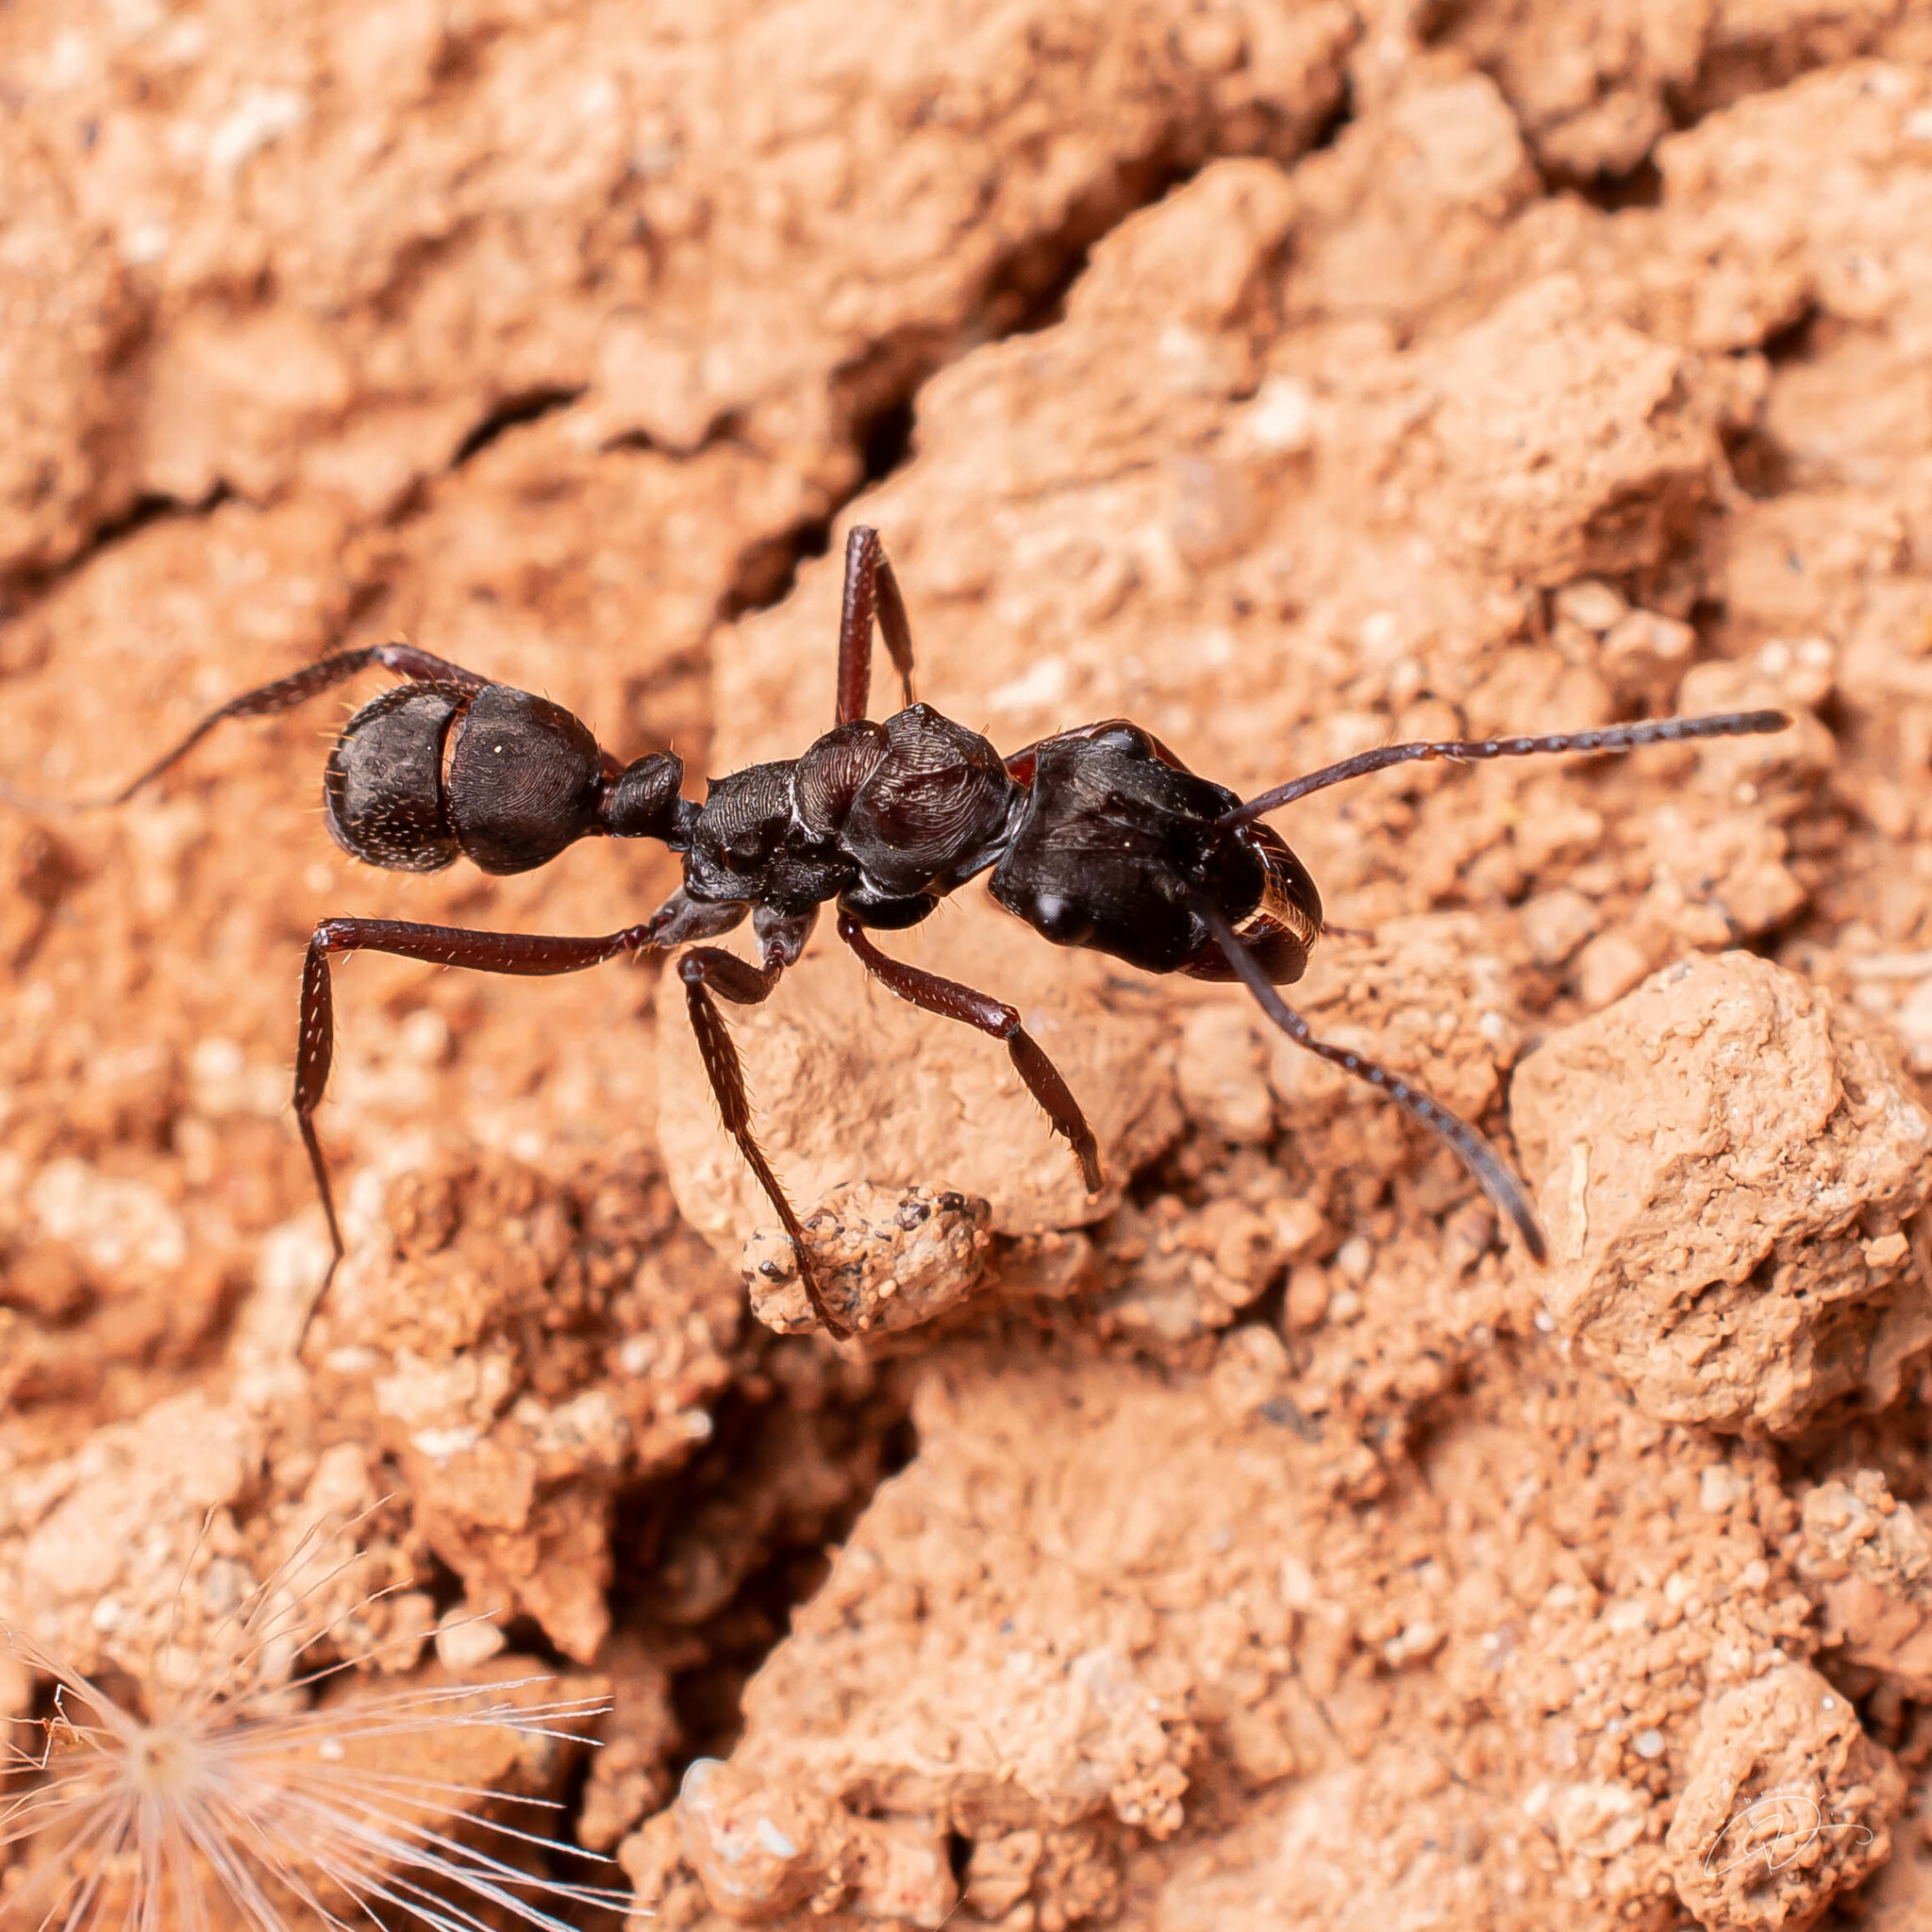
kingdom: Animalia
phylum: Arthropoda
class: Insecta
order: Hymenoptera
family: Formicidae
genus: Ectatomma
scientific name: Ectatomma permagnum
